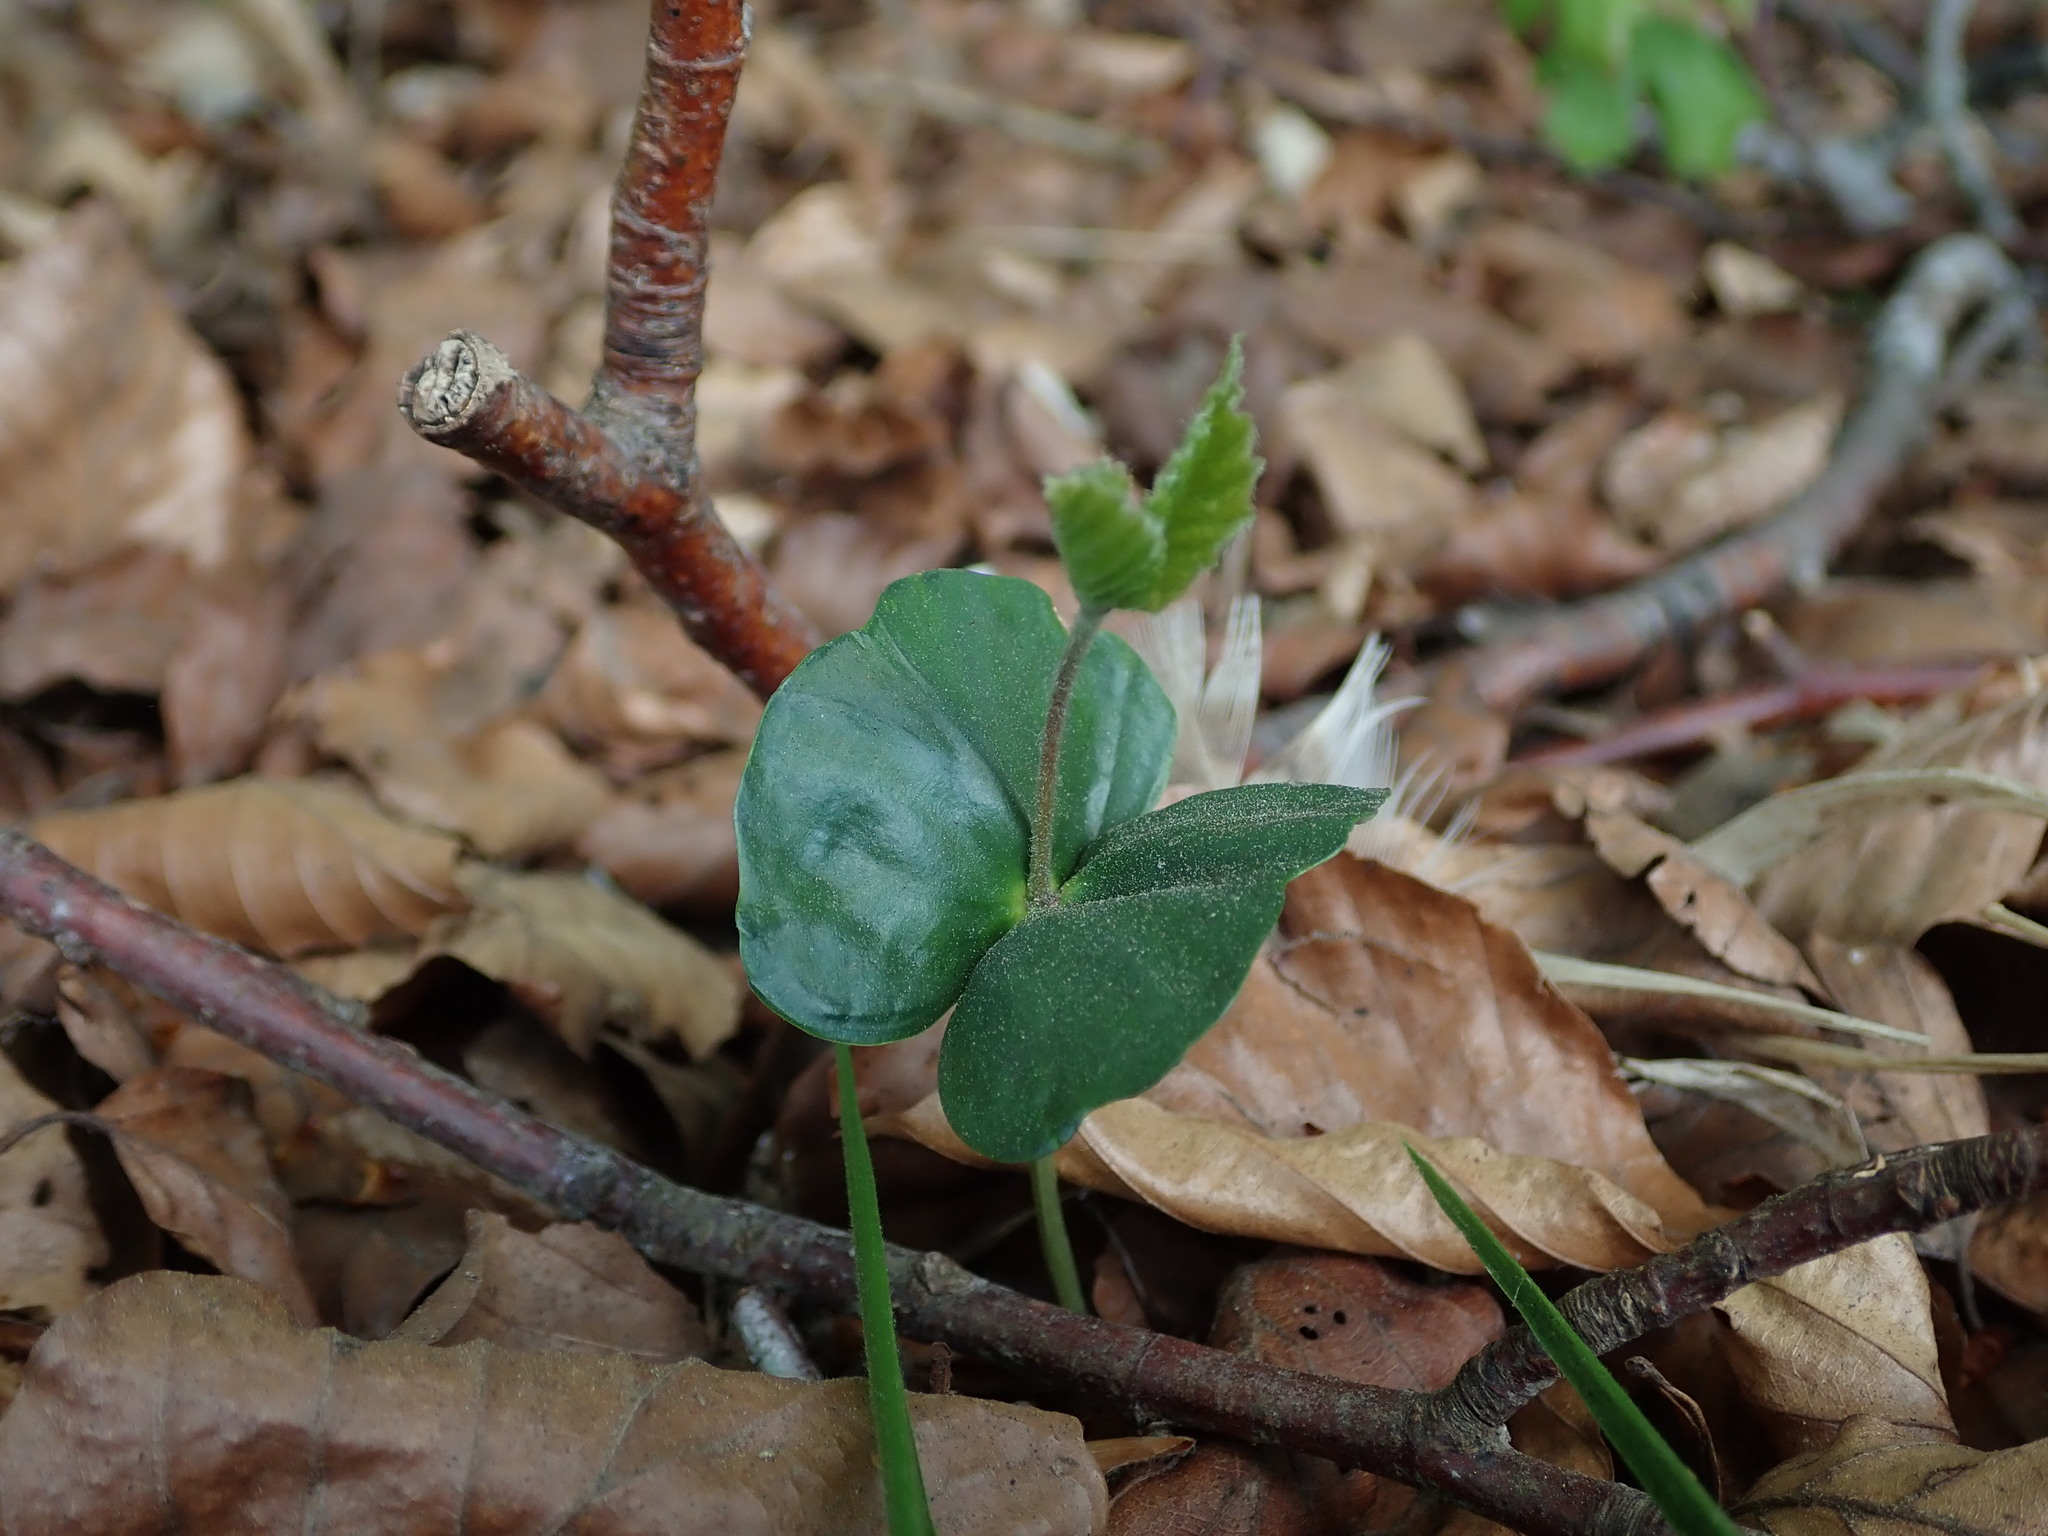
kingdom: Plantae
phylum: Tracheophyta
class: Magnoliopsida
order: Fagales
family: Fagaceae
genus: Fagus
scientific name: Fagus sylvatica
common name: Beech
